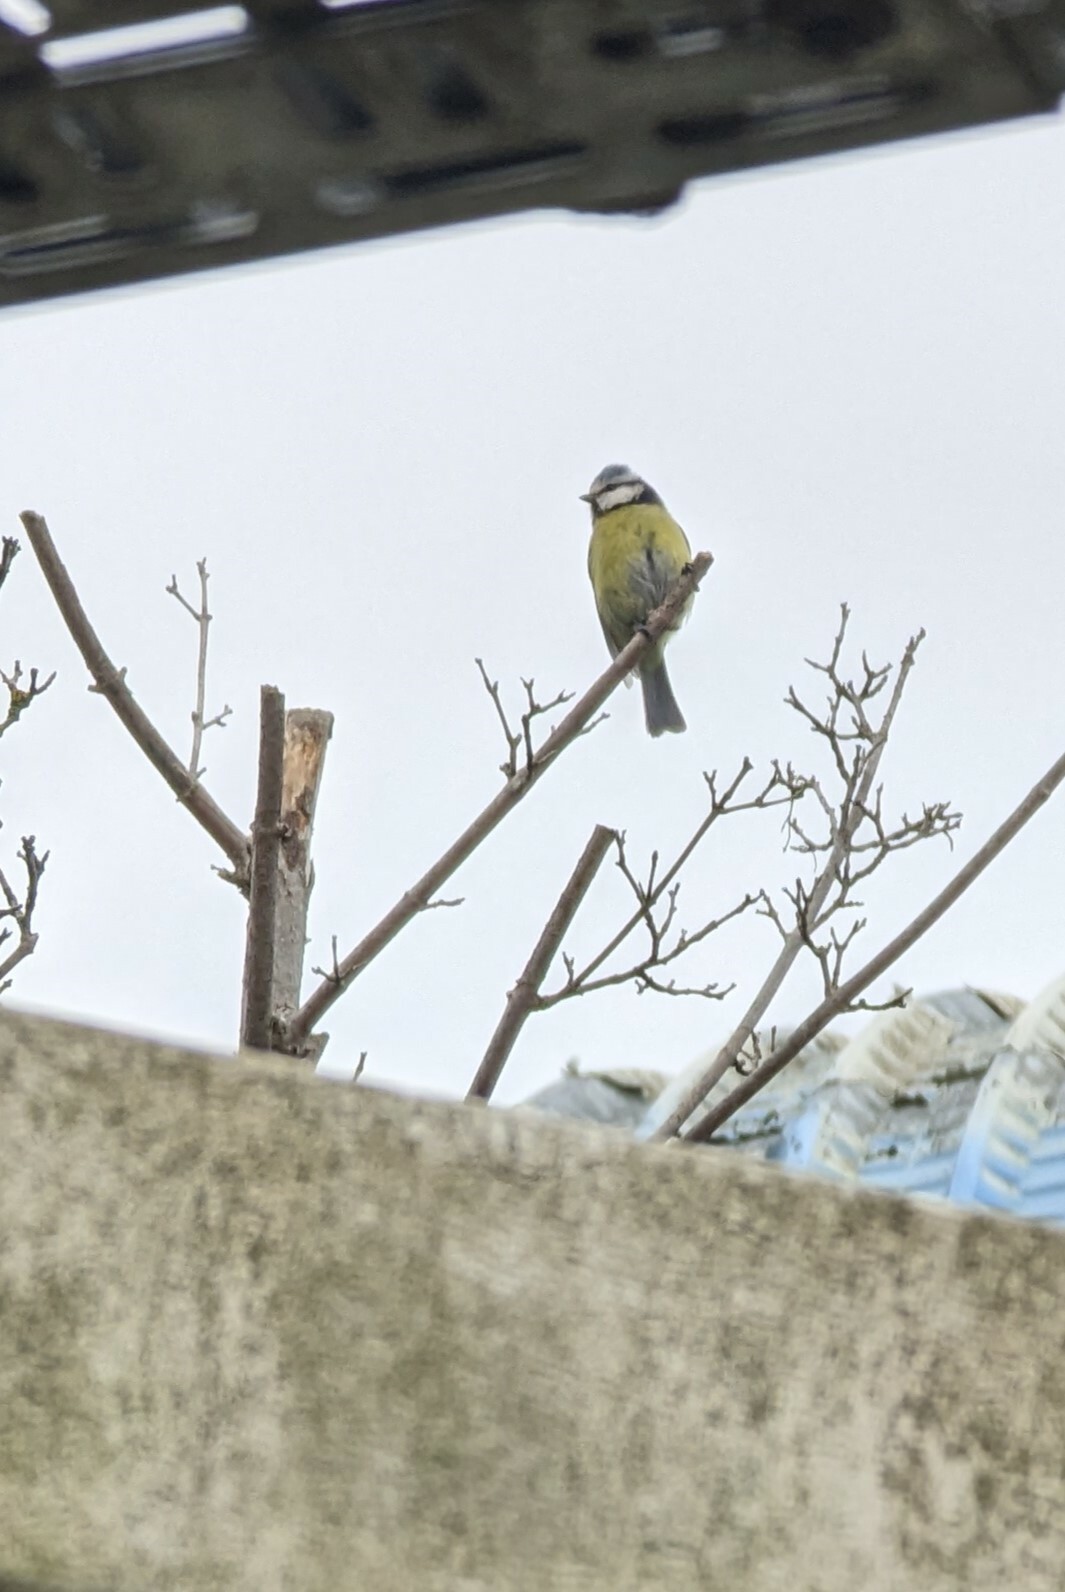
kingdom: Animalia
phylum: Chordata
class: Aves
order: Passeriformes
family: Paridae
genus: Cyanistes
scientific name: Cyanistes caeruleus
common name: Eurasian blue tit
